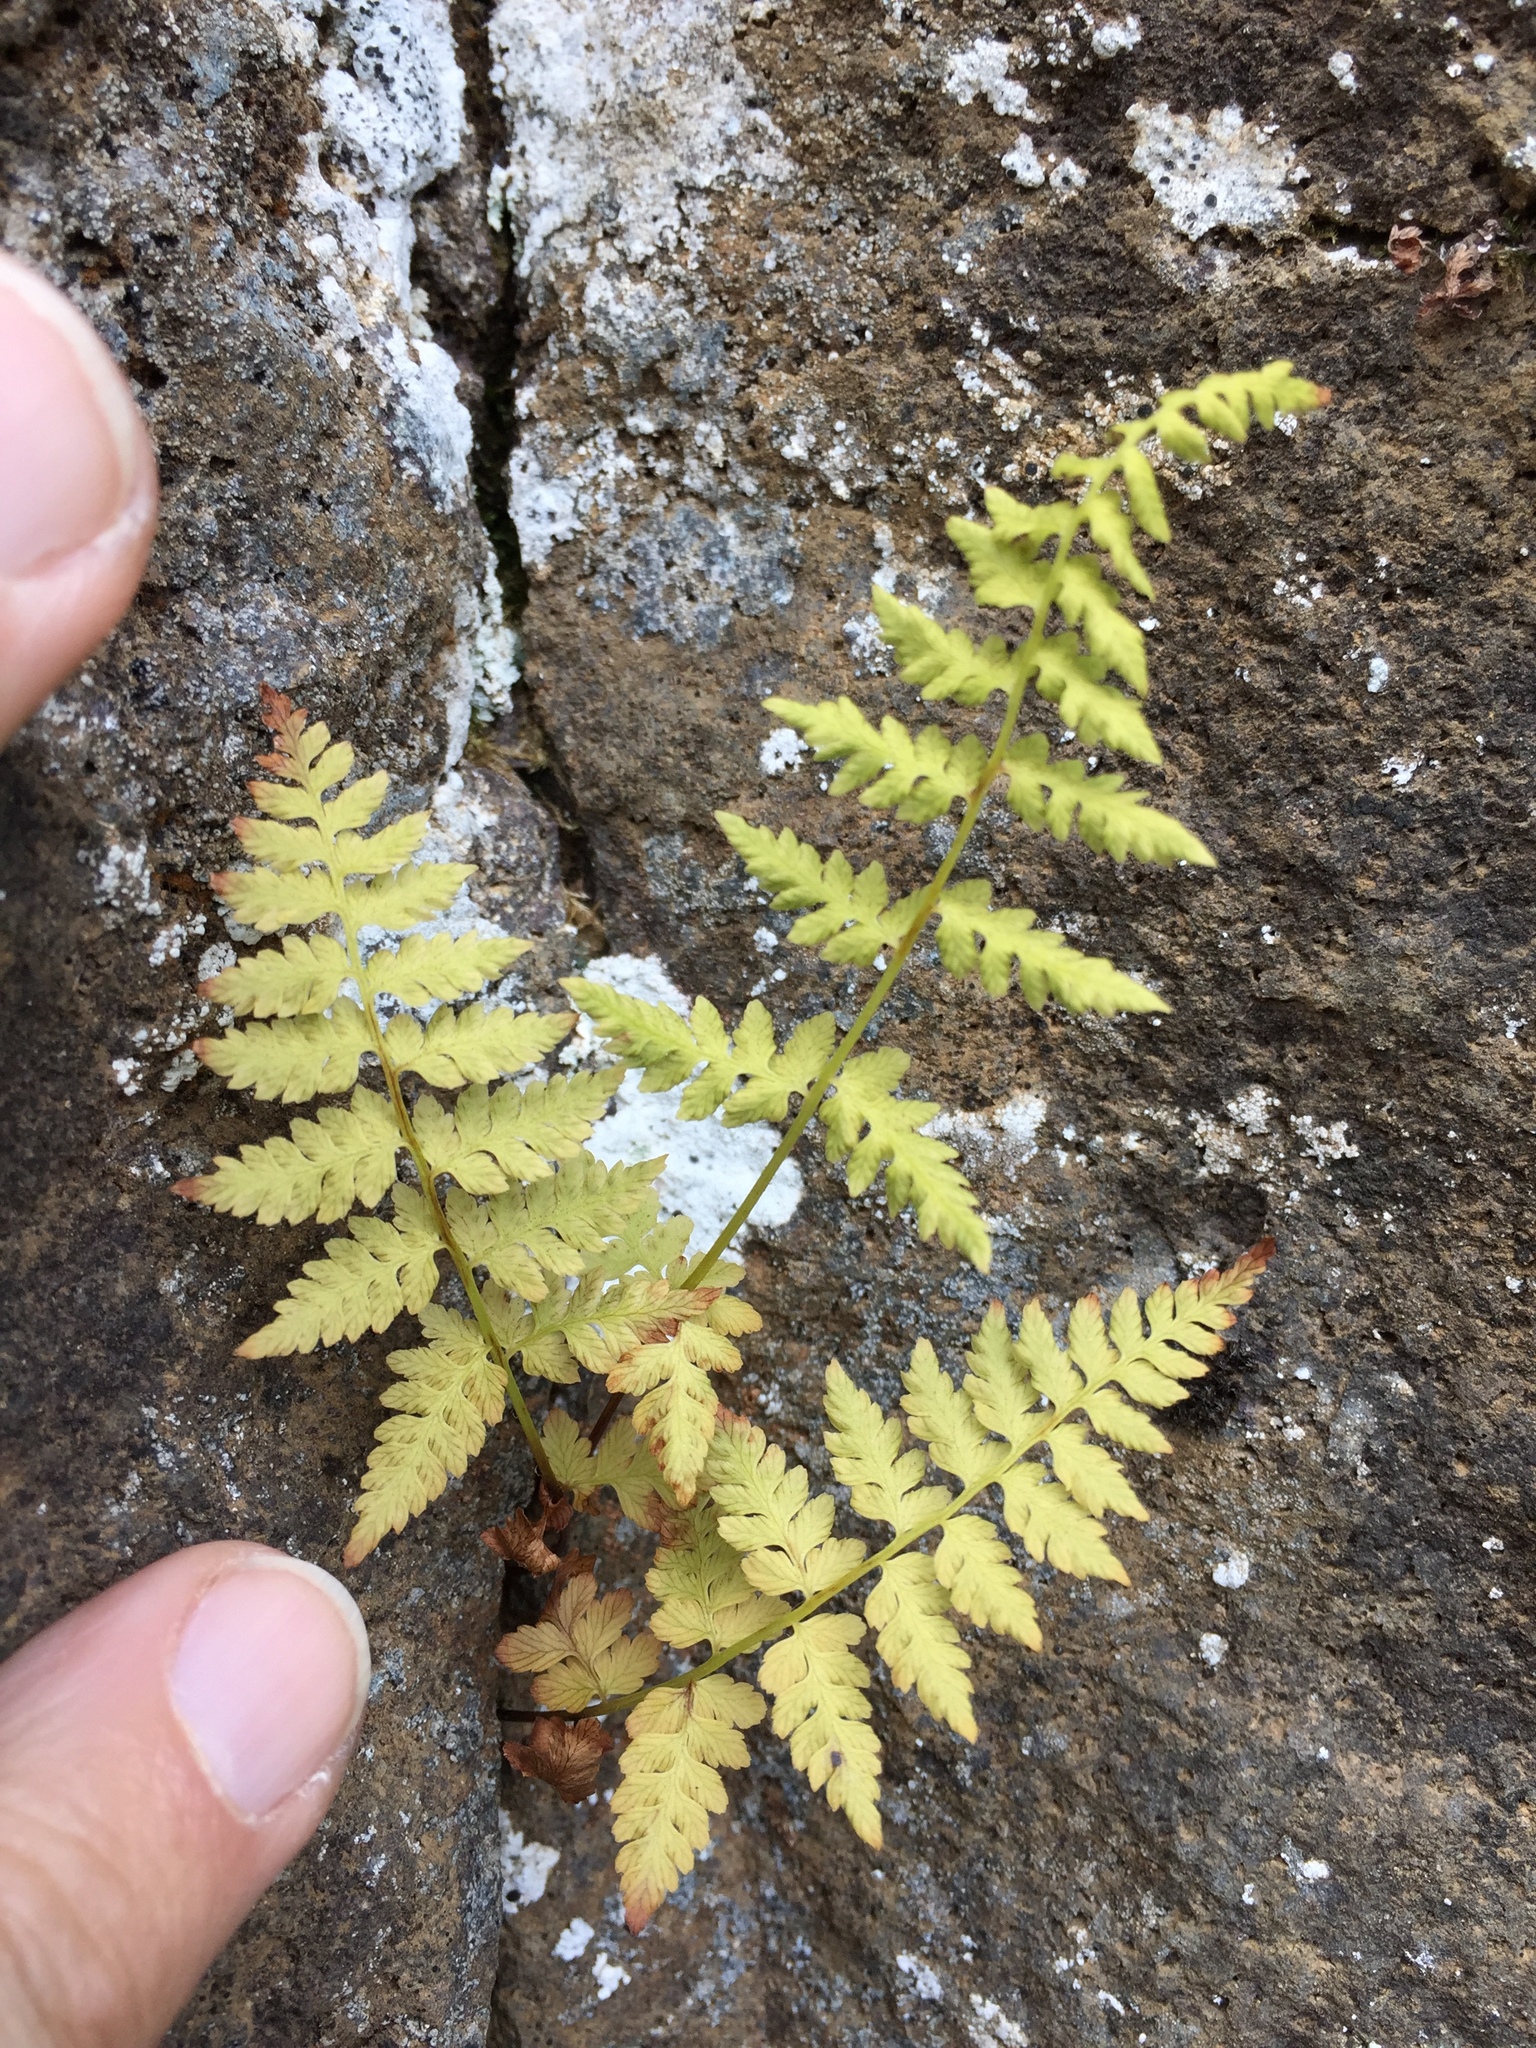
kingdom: Plantae
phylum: Tracheophyta
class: Polypodiopsida
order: Polypodiales
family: Cystopteridaceae
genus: Cystopteris
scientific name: Cystopteris fragilis
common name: Brittle bladder fern
